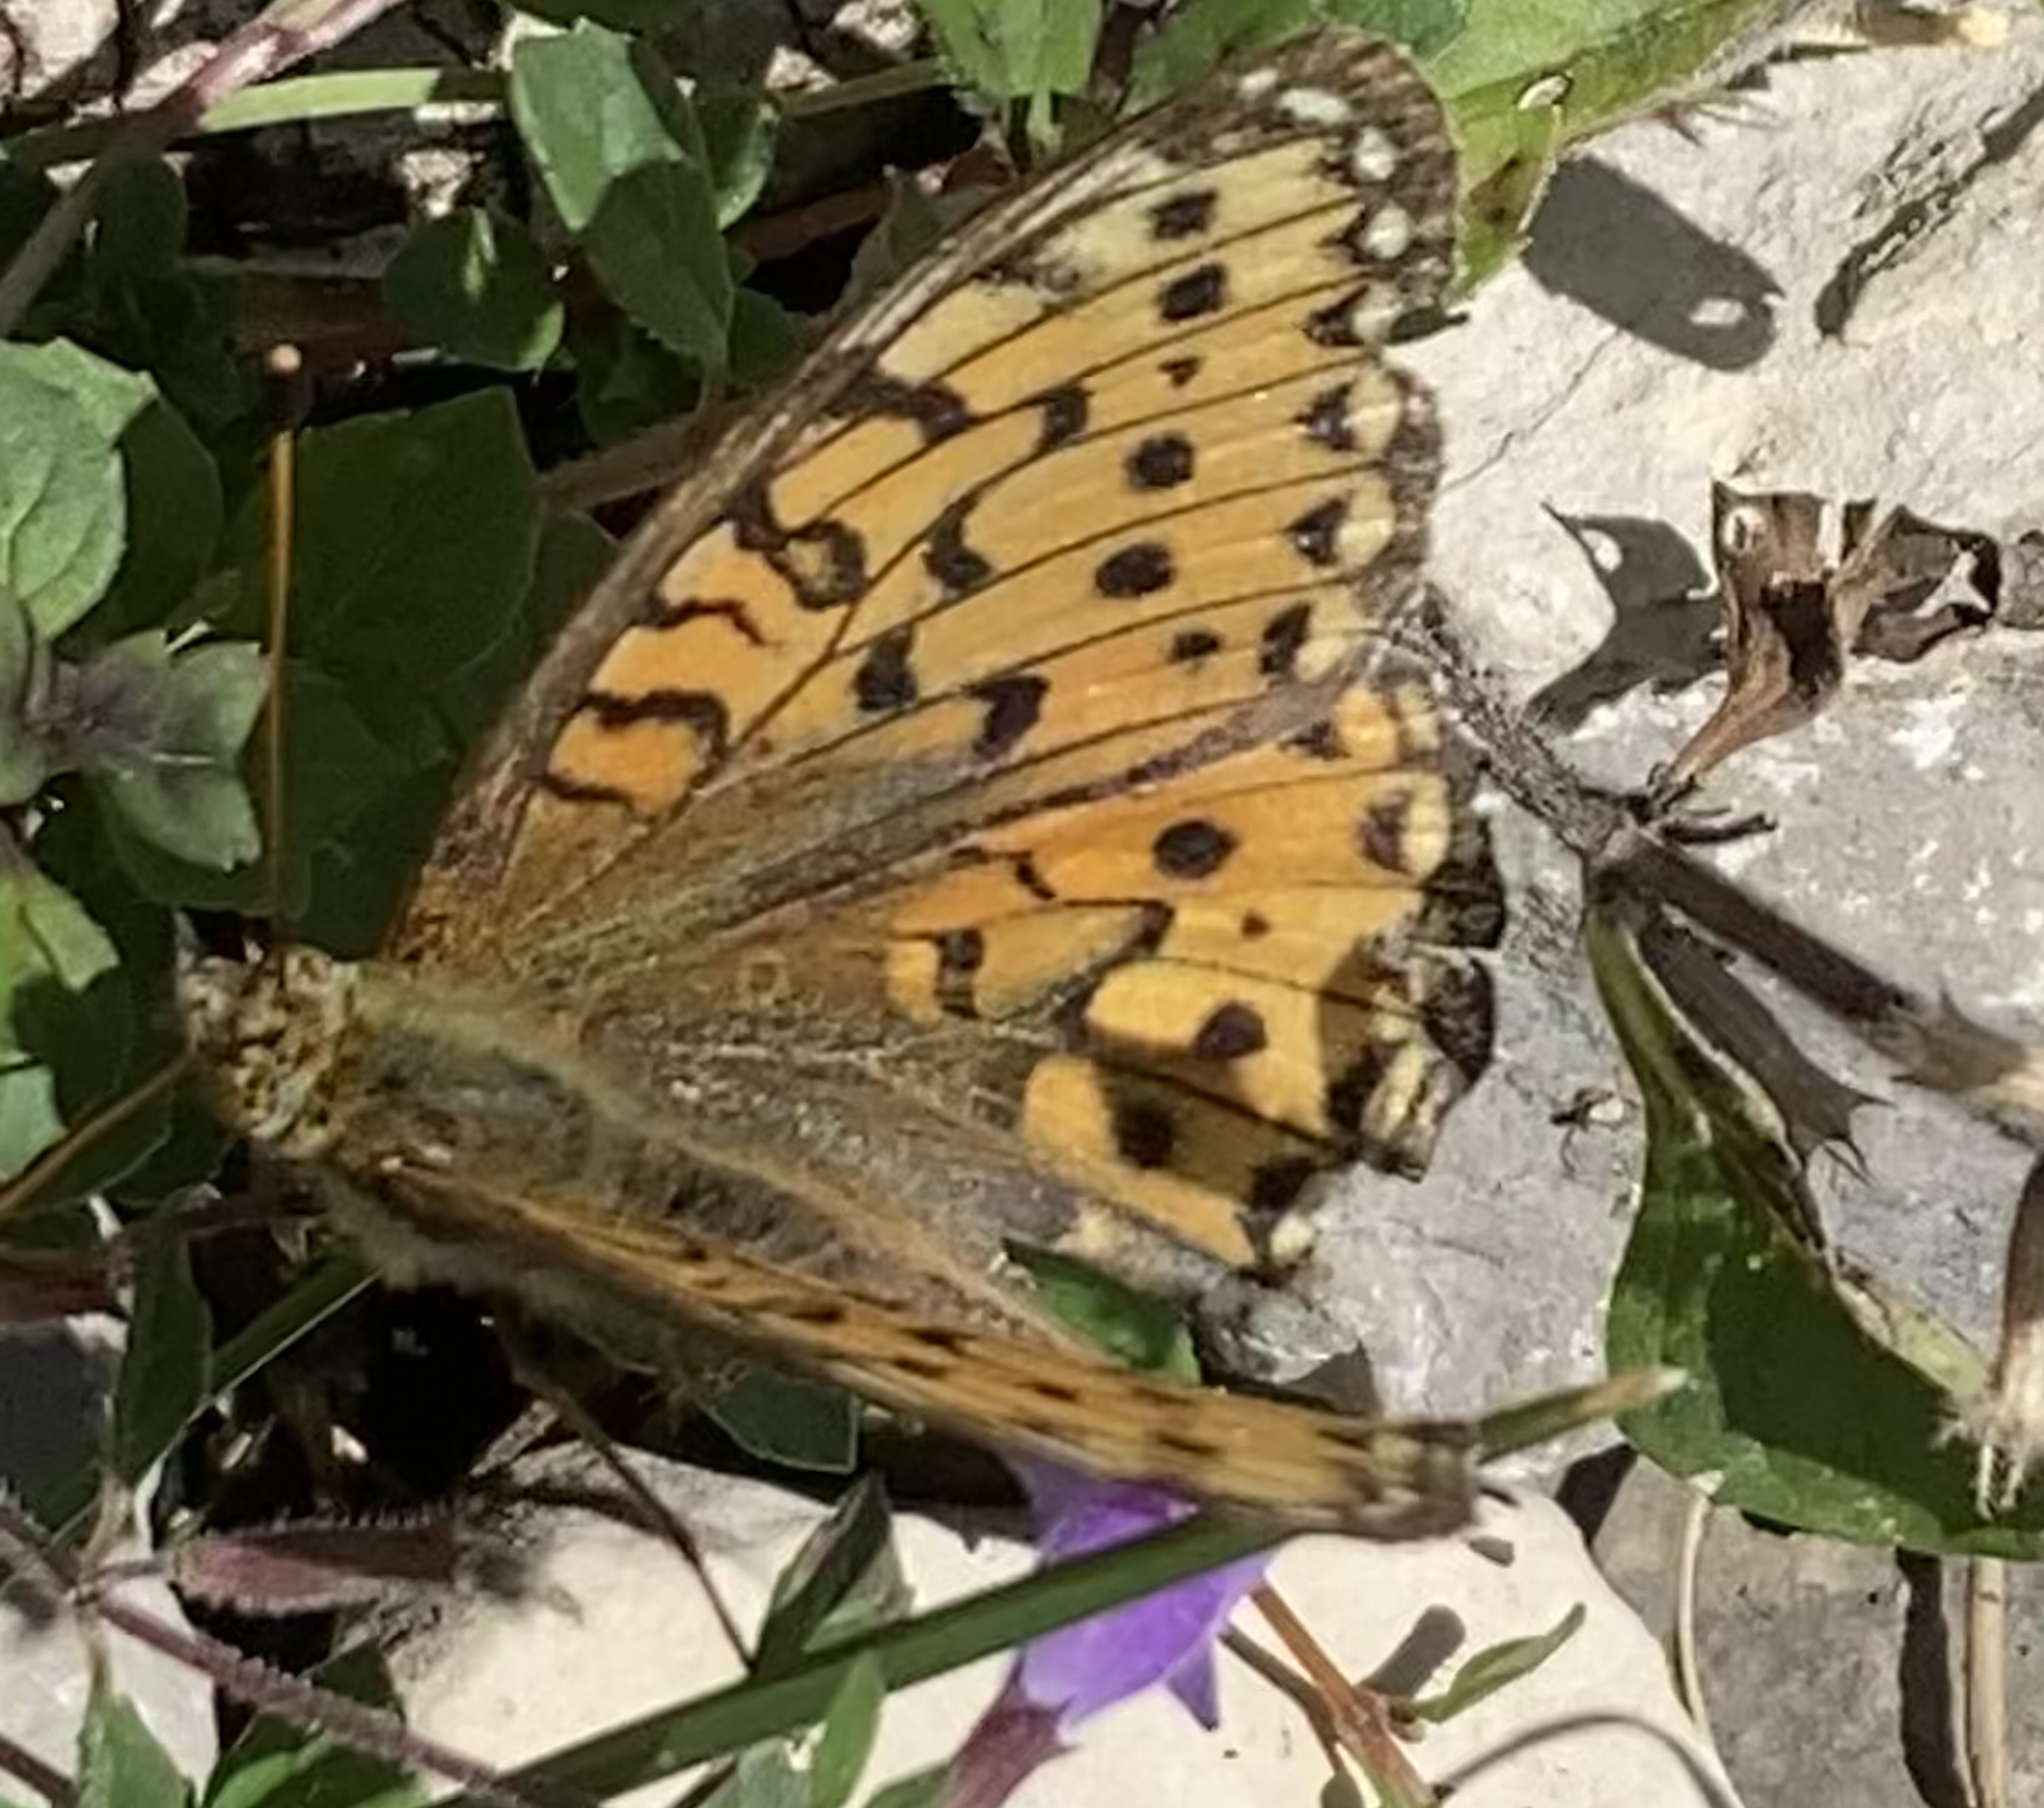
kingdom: Animalia
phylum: Arthropoda
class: Insecta
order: Lepidoptera
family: Nymphalidae
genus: Speyeria
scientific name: Speyeria aglaja
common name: Dark green fritillary
